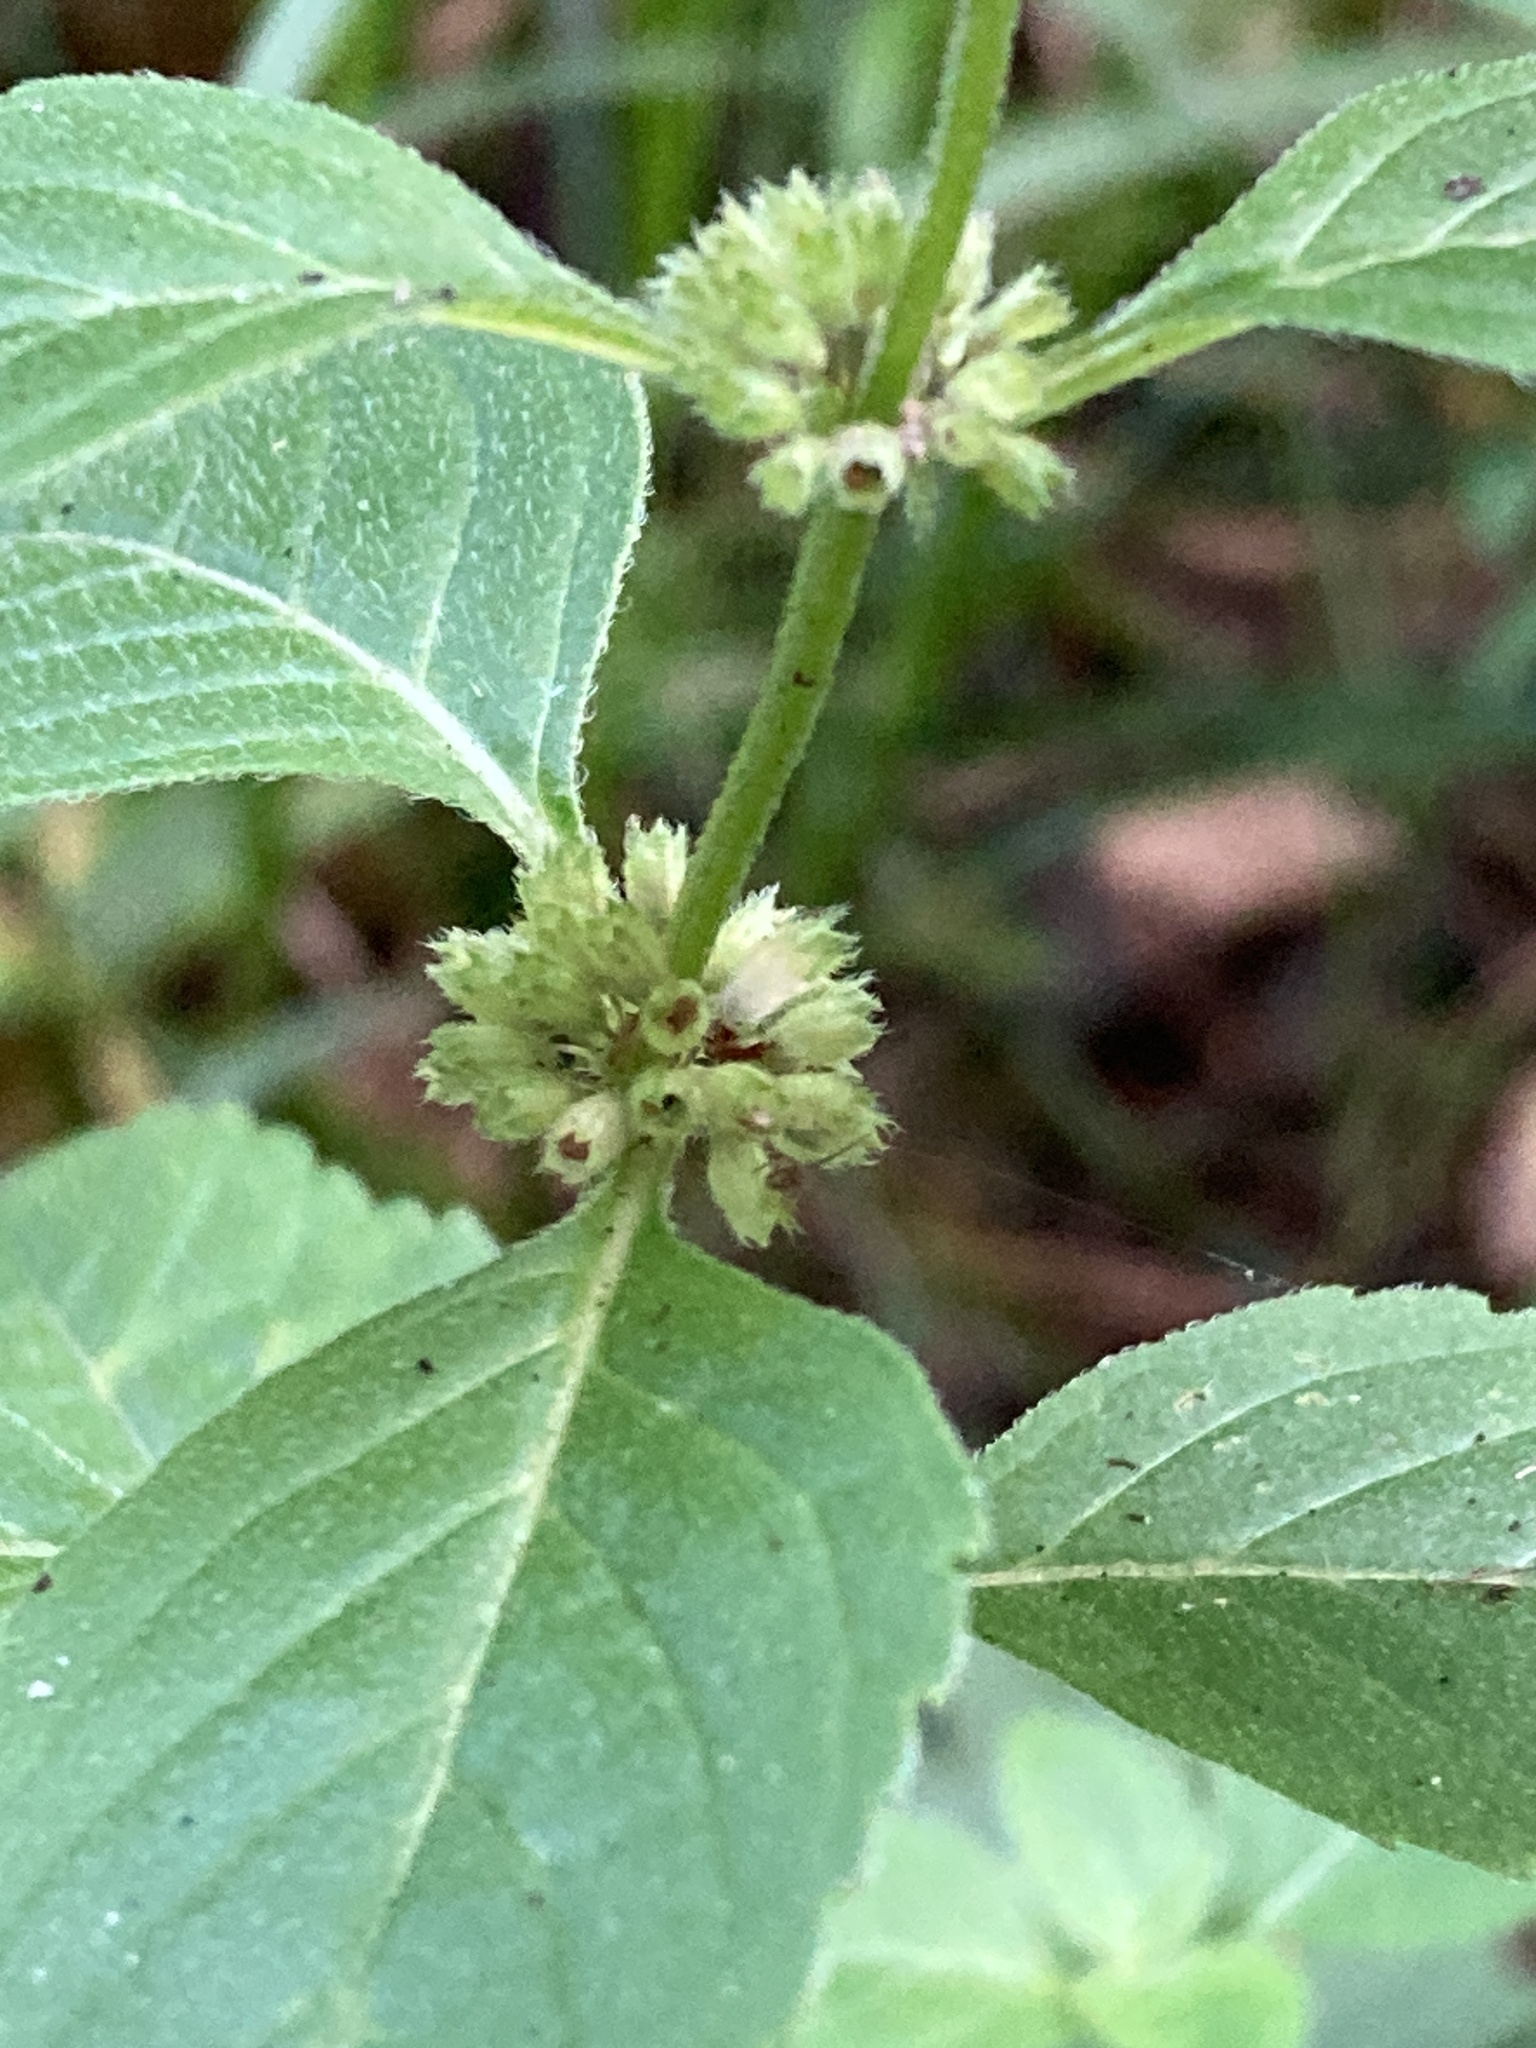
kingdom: Plantae
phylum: Tracheophyta
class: Magnoliopsida
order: Lamiales
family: Lamiaceae
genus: Mentha
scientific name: Mentha arvensis
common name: Corn mint
